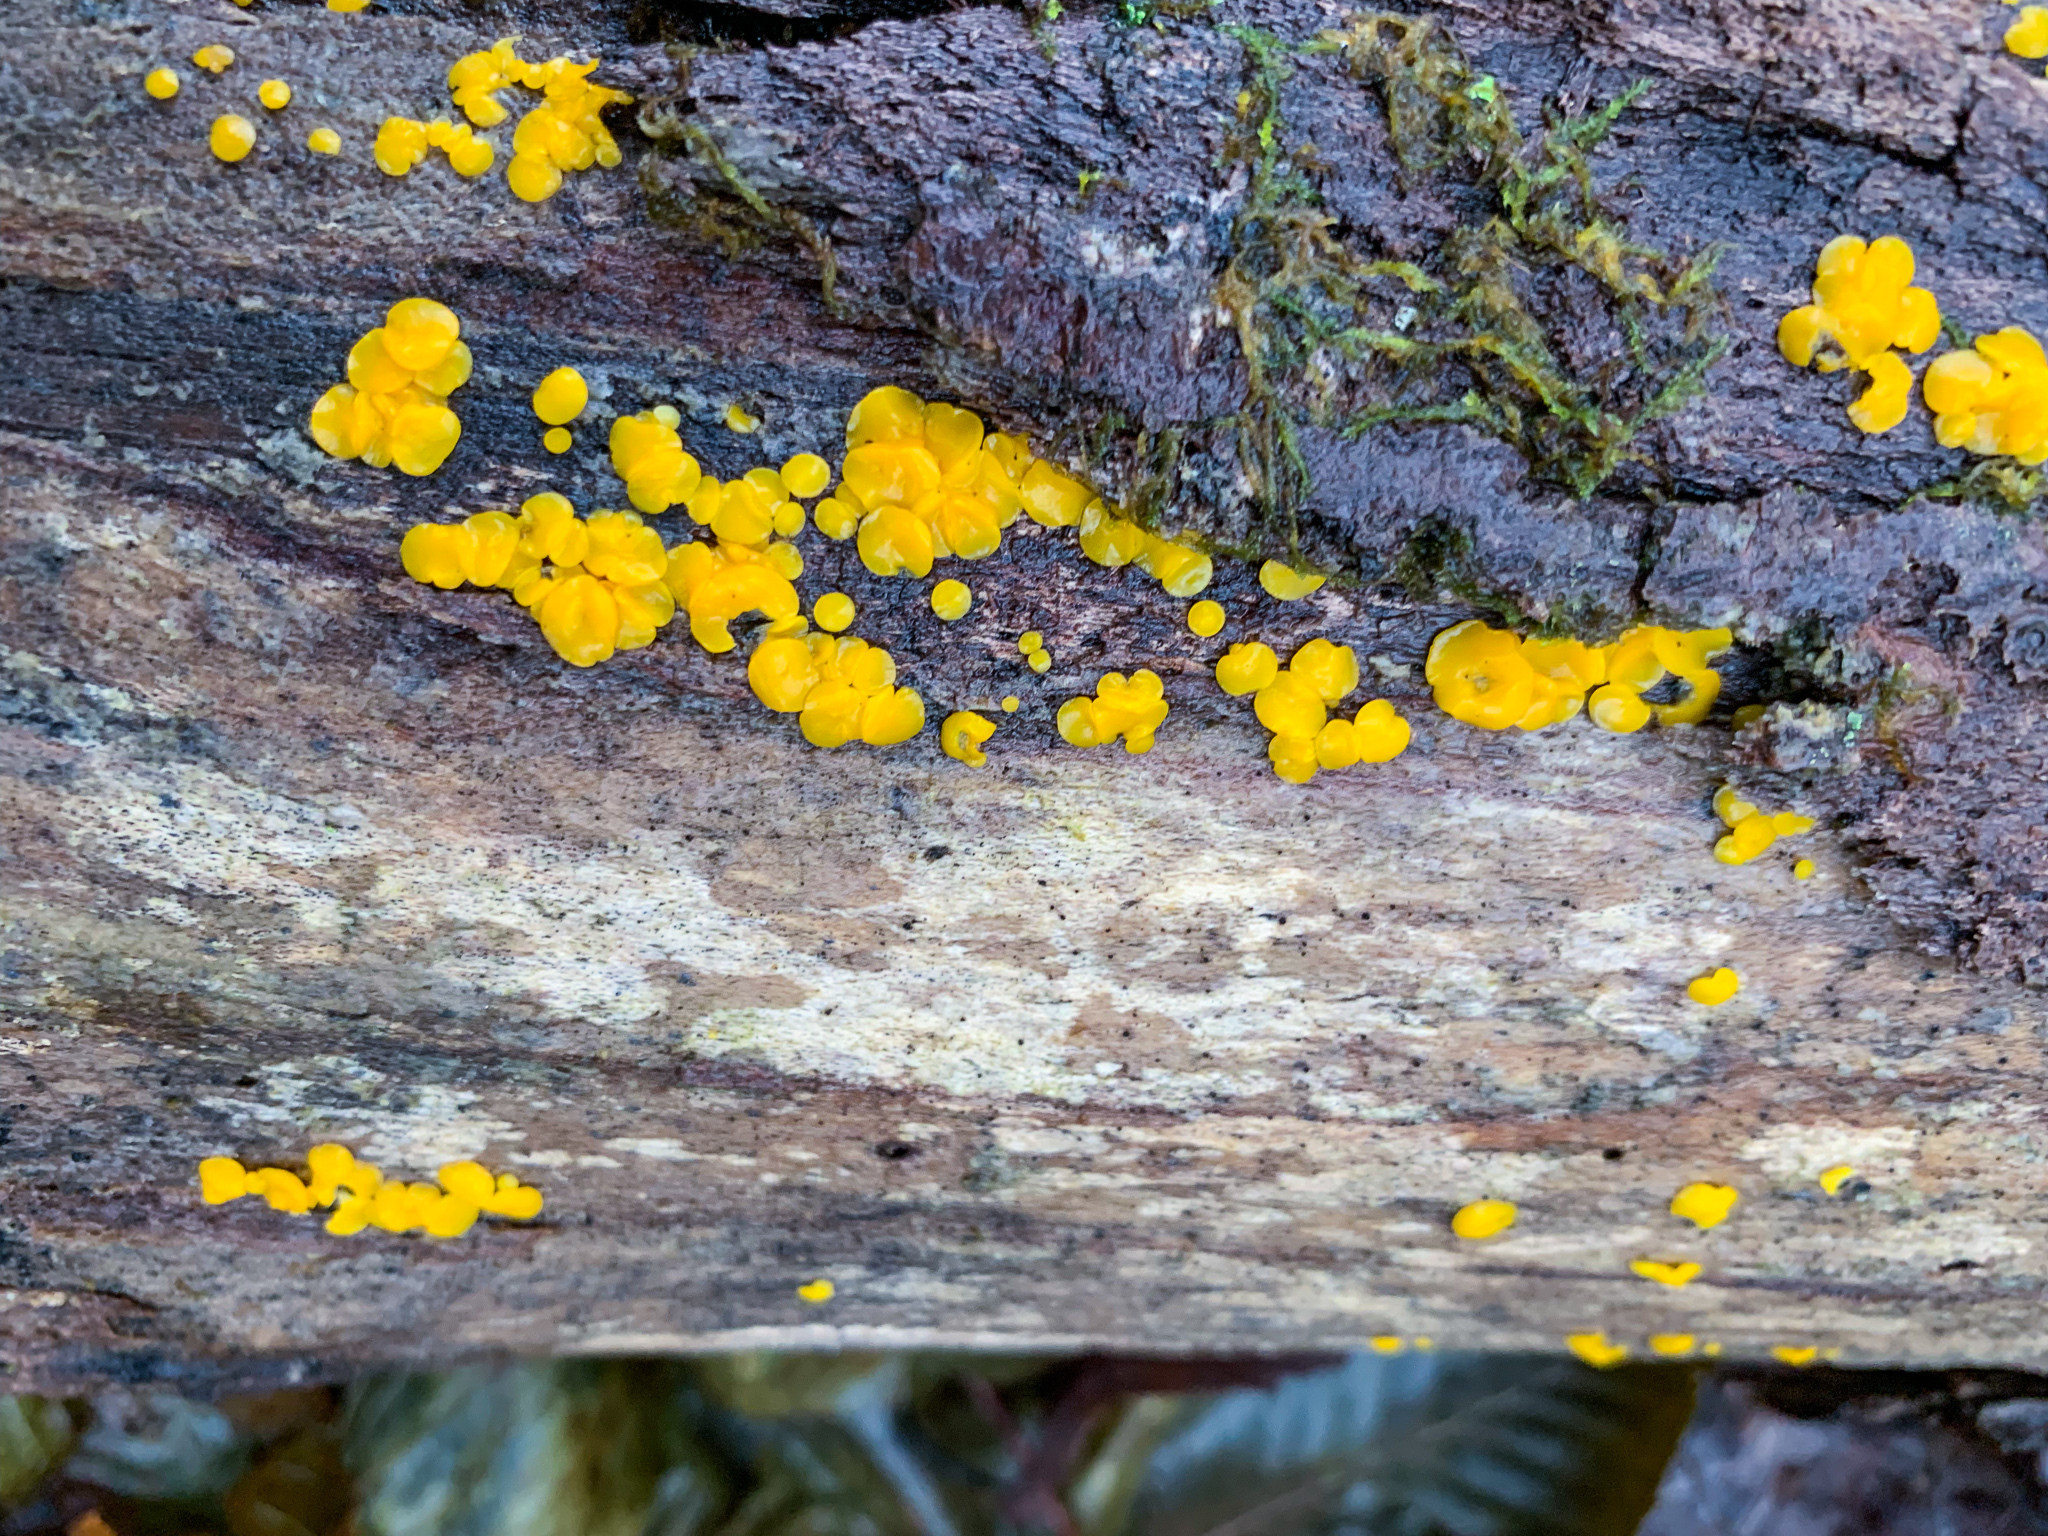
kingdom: Fungi
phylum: Ascomycota
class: Leotiomycetes
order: Helotiales
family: Pezizellaceae
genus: Calycina
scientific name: Calycina citrina
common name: Yellow fairy cups
